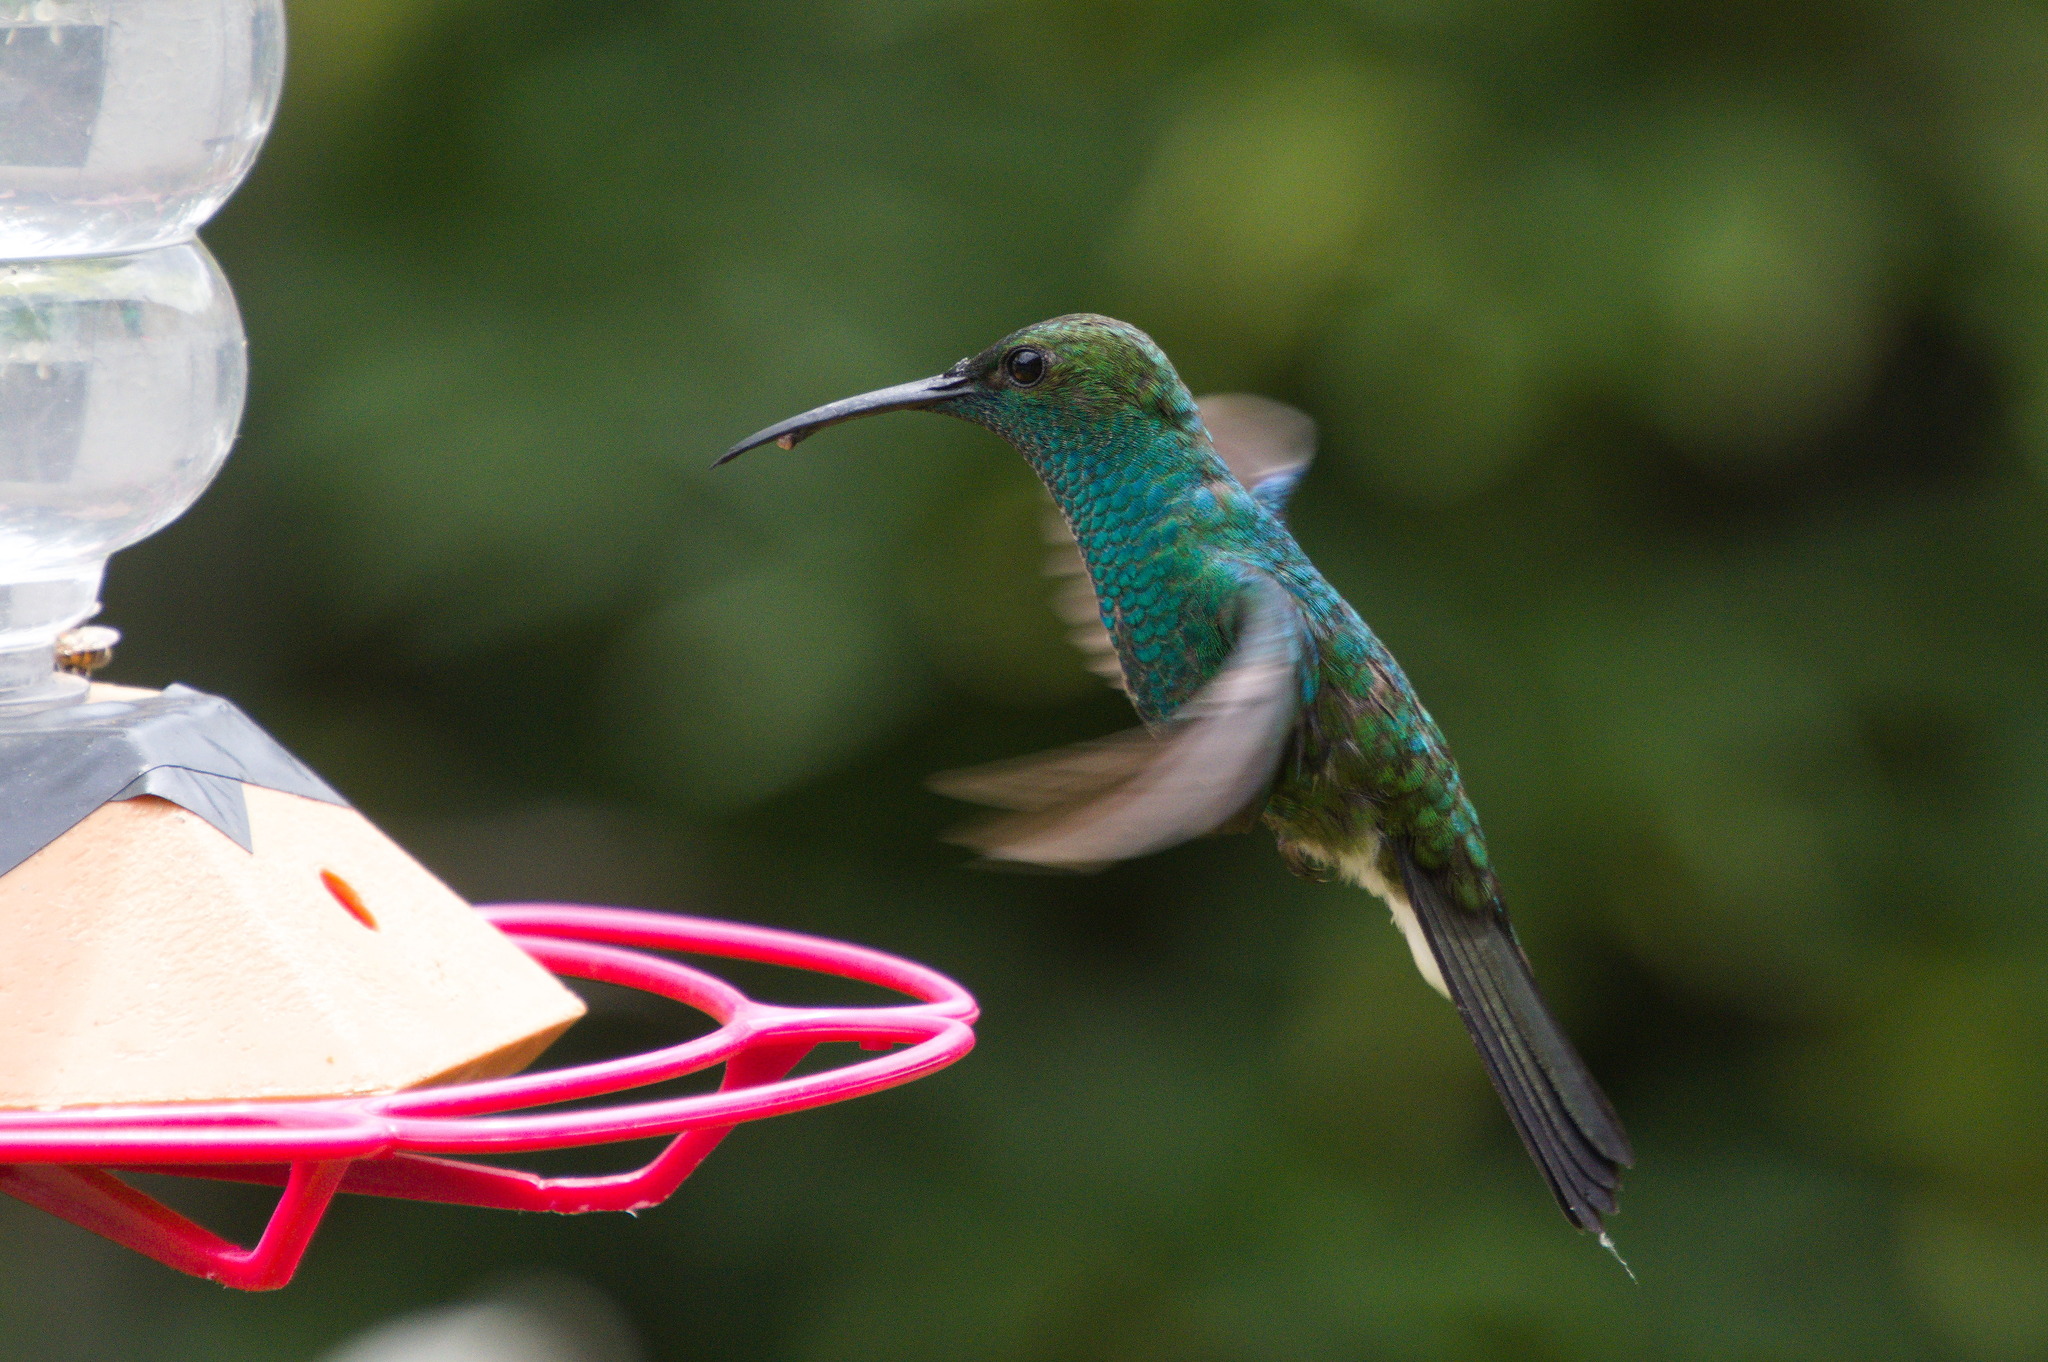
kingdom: Animalia
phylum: Chordata
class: Aves
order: Apodiformes
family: Trochilidae
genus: Chalybura
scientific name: Chalybura buffonii
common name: White-vented plumeleteer
